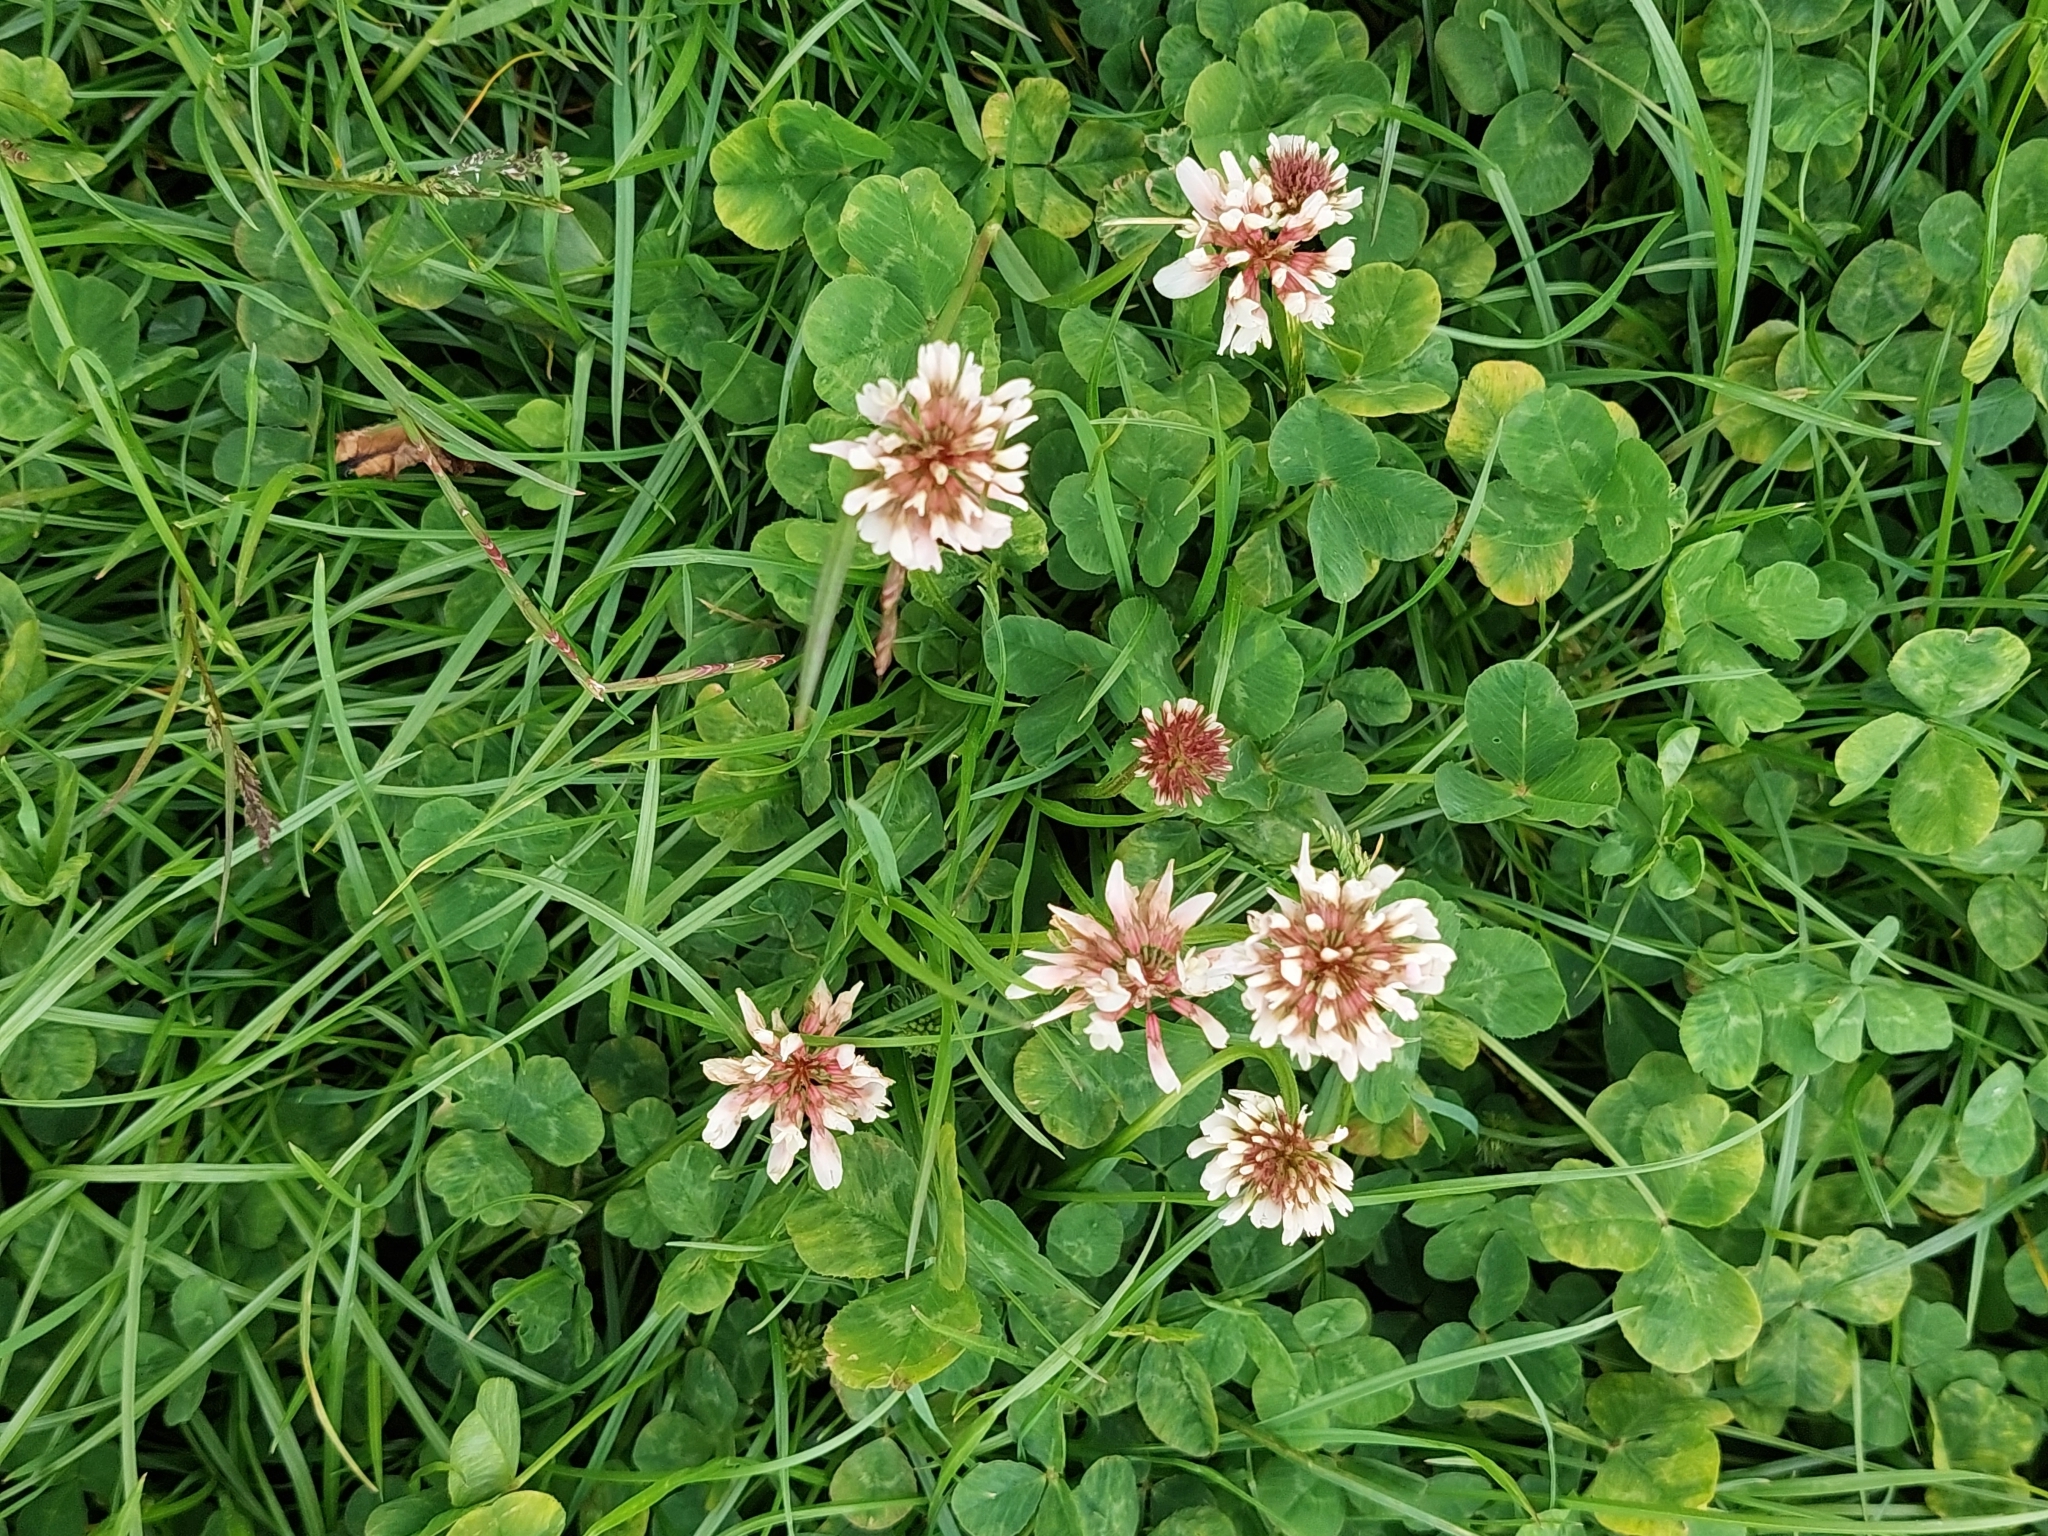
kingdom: Plantae
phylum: Tracheophyta
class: Magnoliopsida
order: Fabales
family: Fabaceae
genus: Trifolium
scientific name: Trifolium repens
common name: White clover
